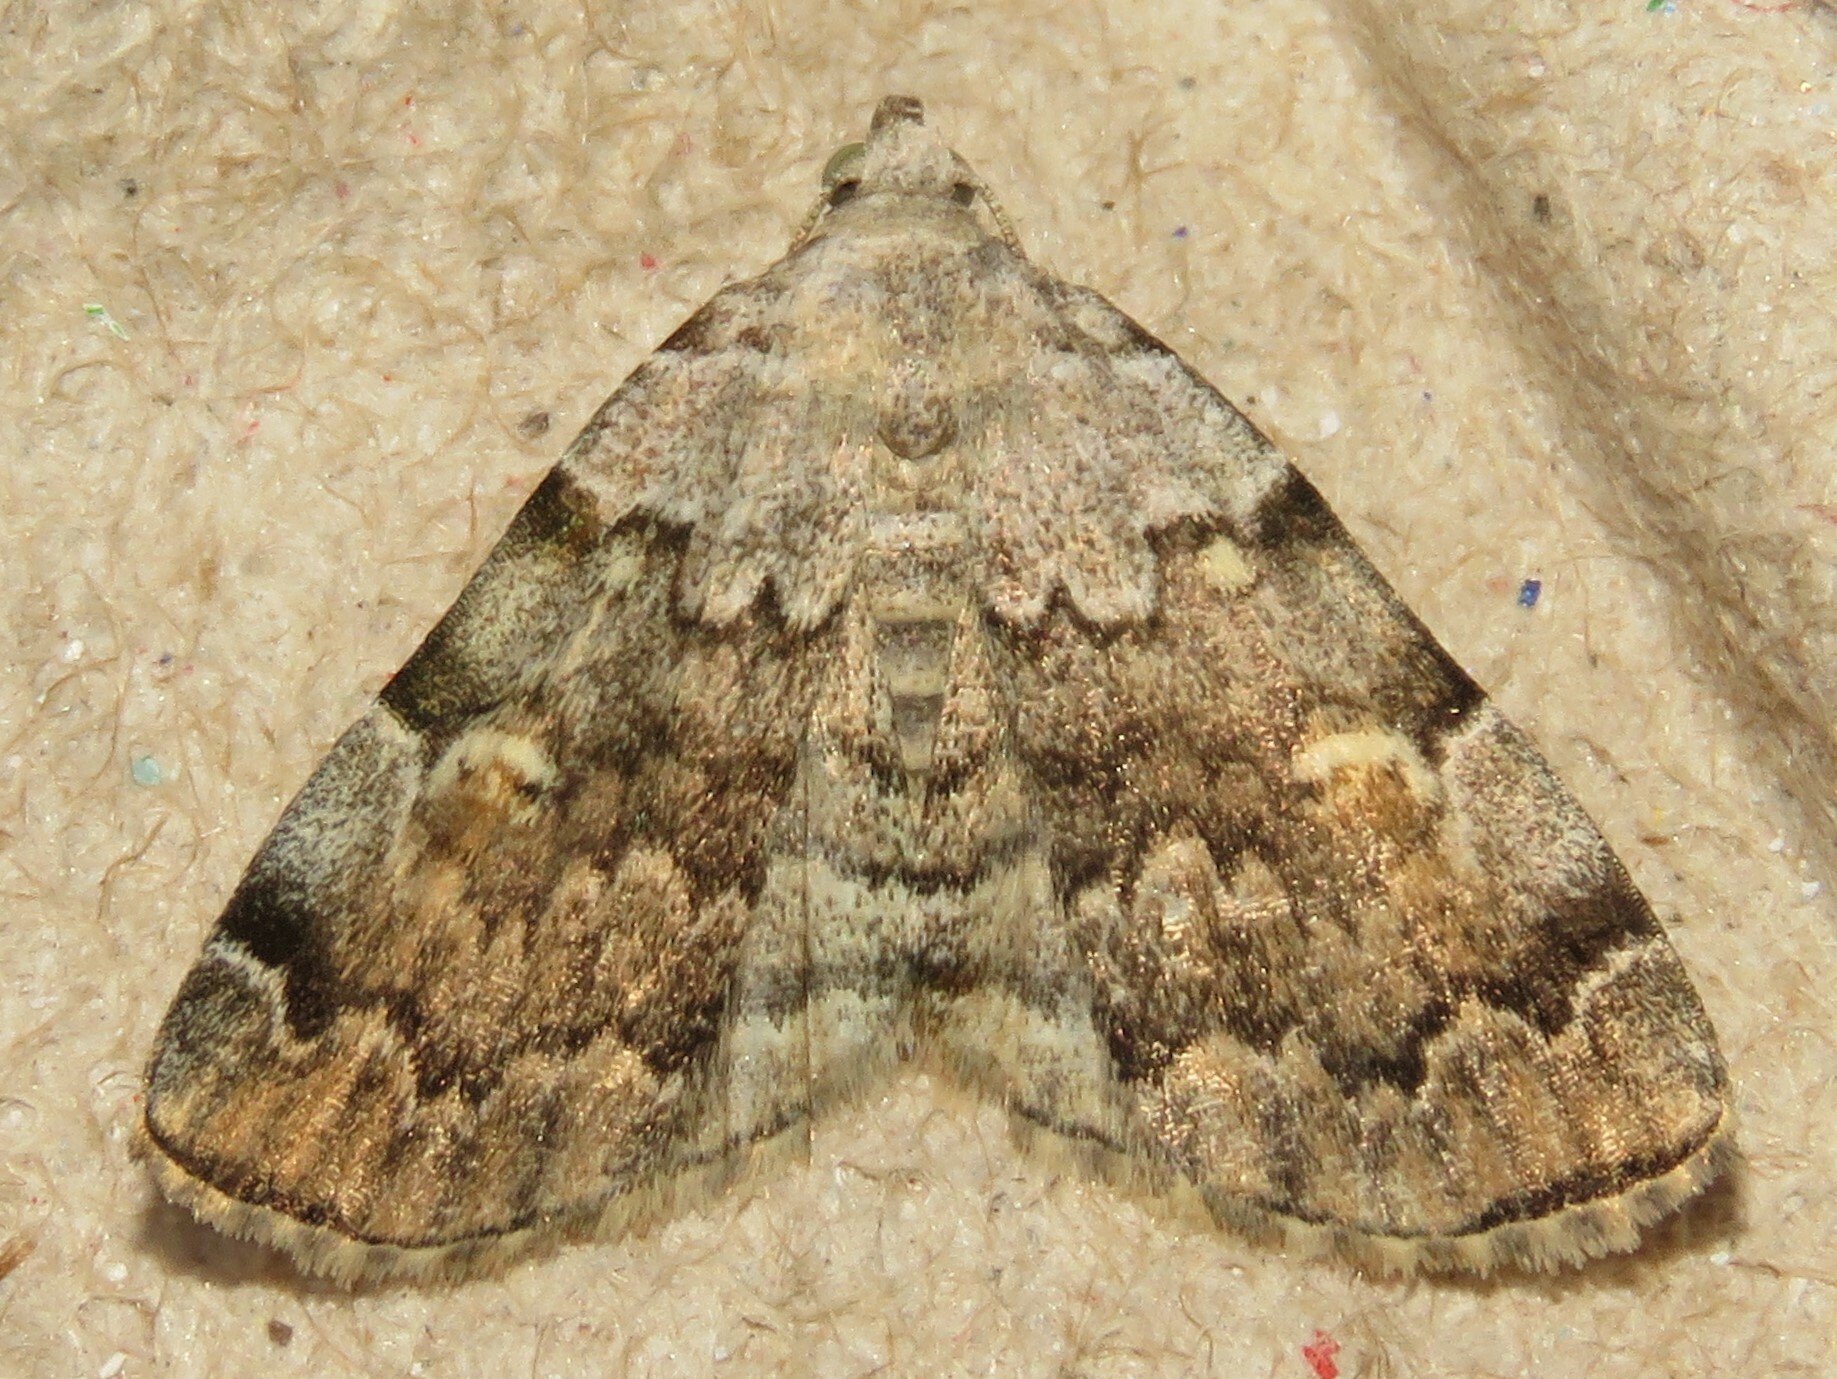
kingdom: Animalia
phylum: Arthropoda
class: Insecta
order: Lepidoptera
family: Erebidae
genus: Idia
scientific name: Idia americalis
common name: American idia moth
